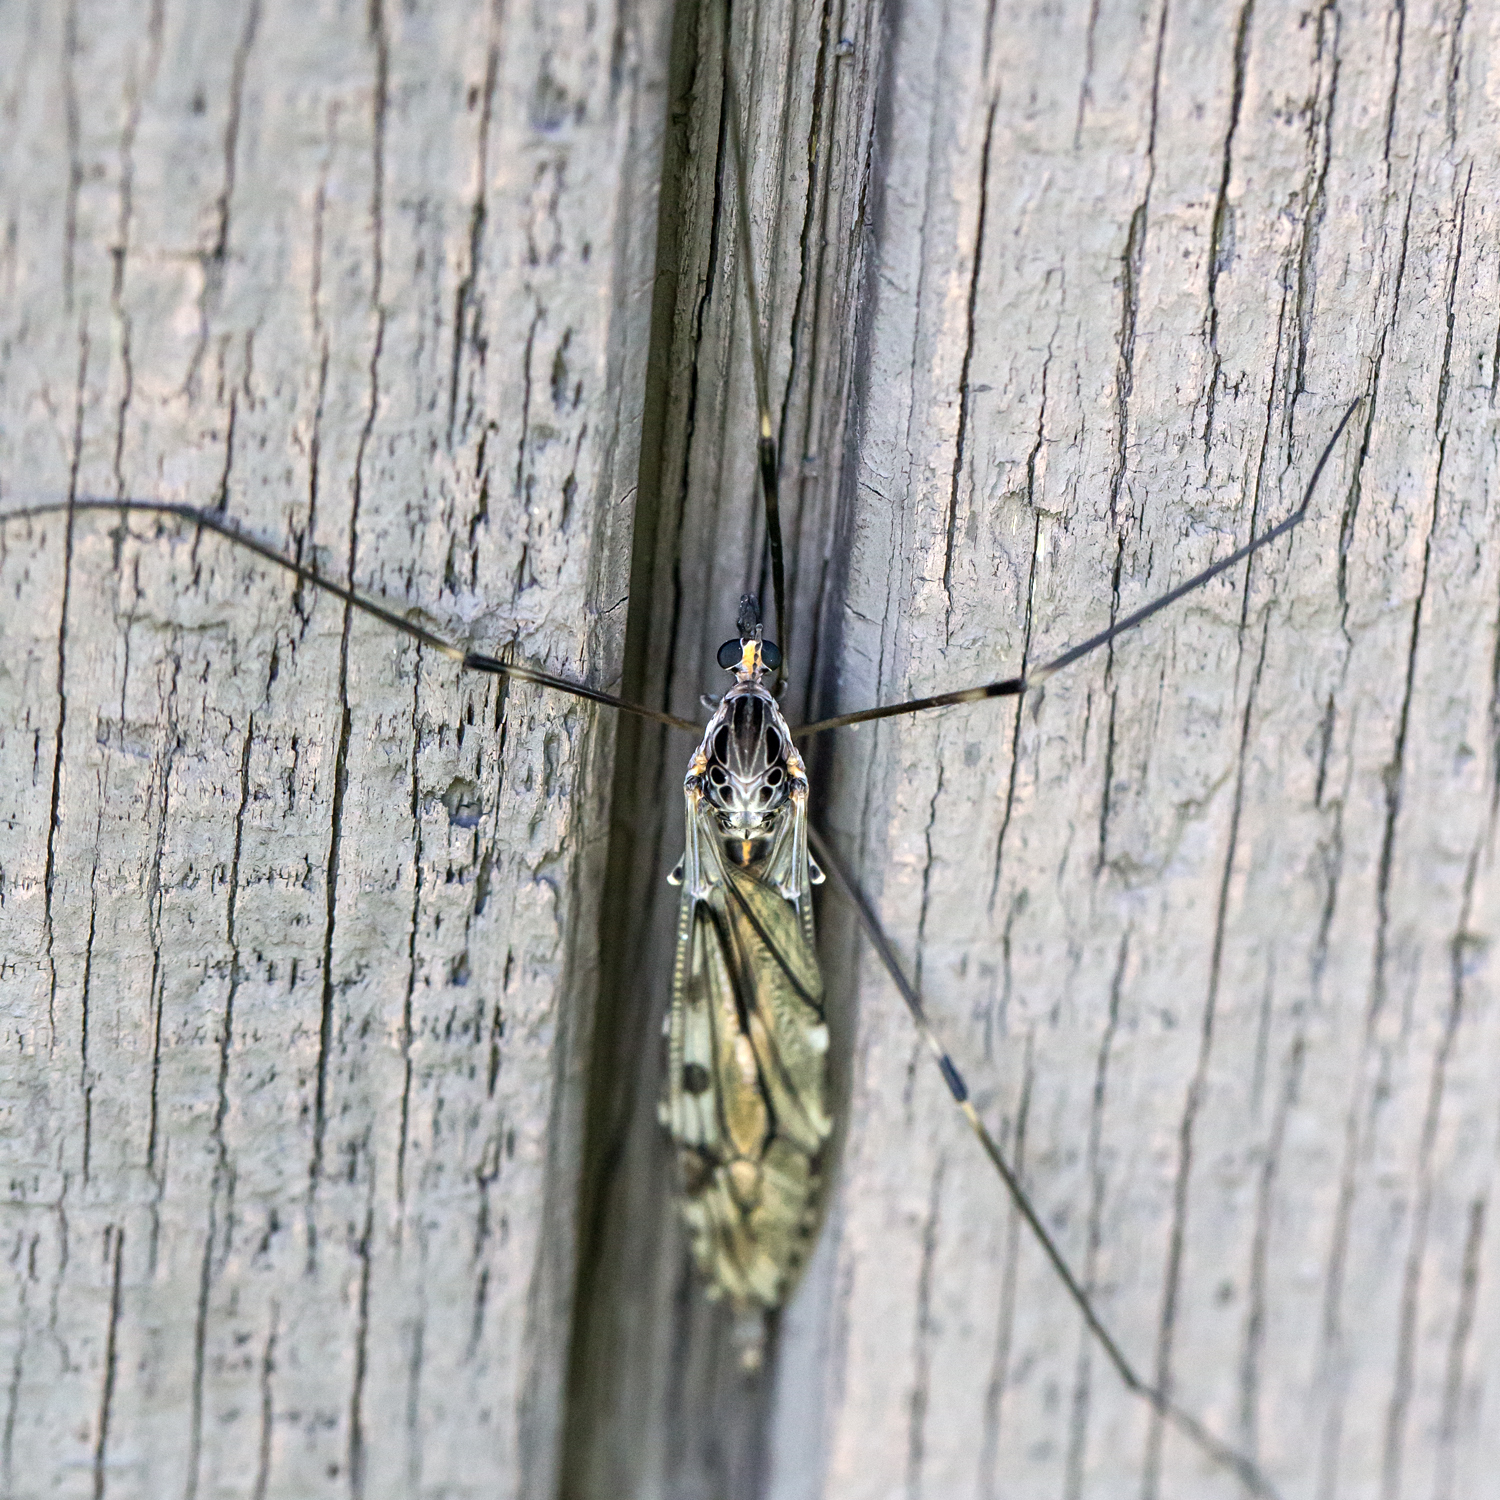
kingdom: Animalia
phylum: Arthropoda
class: Insecta
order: Diptera
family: Tipulidae
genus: Tipula
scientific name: Tipula abdominalis
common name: Giant crane fly
